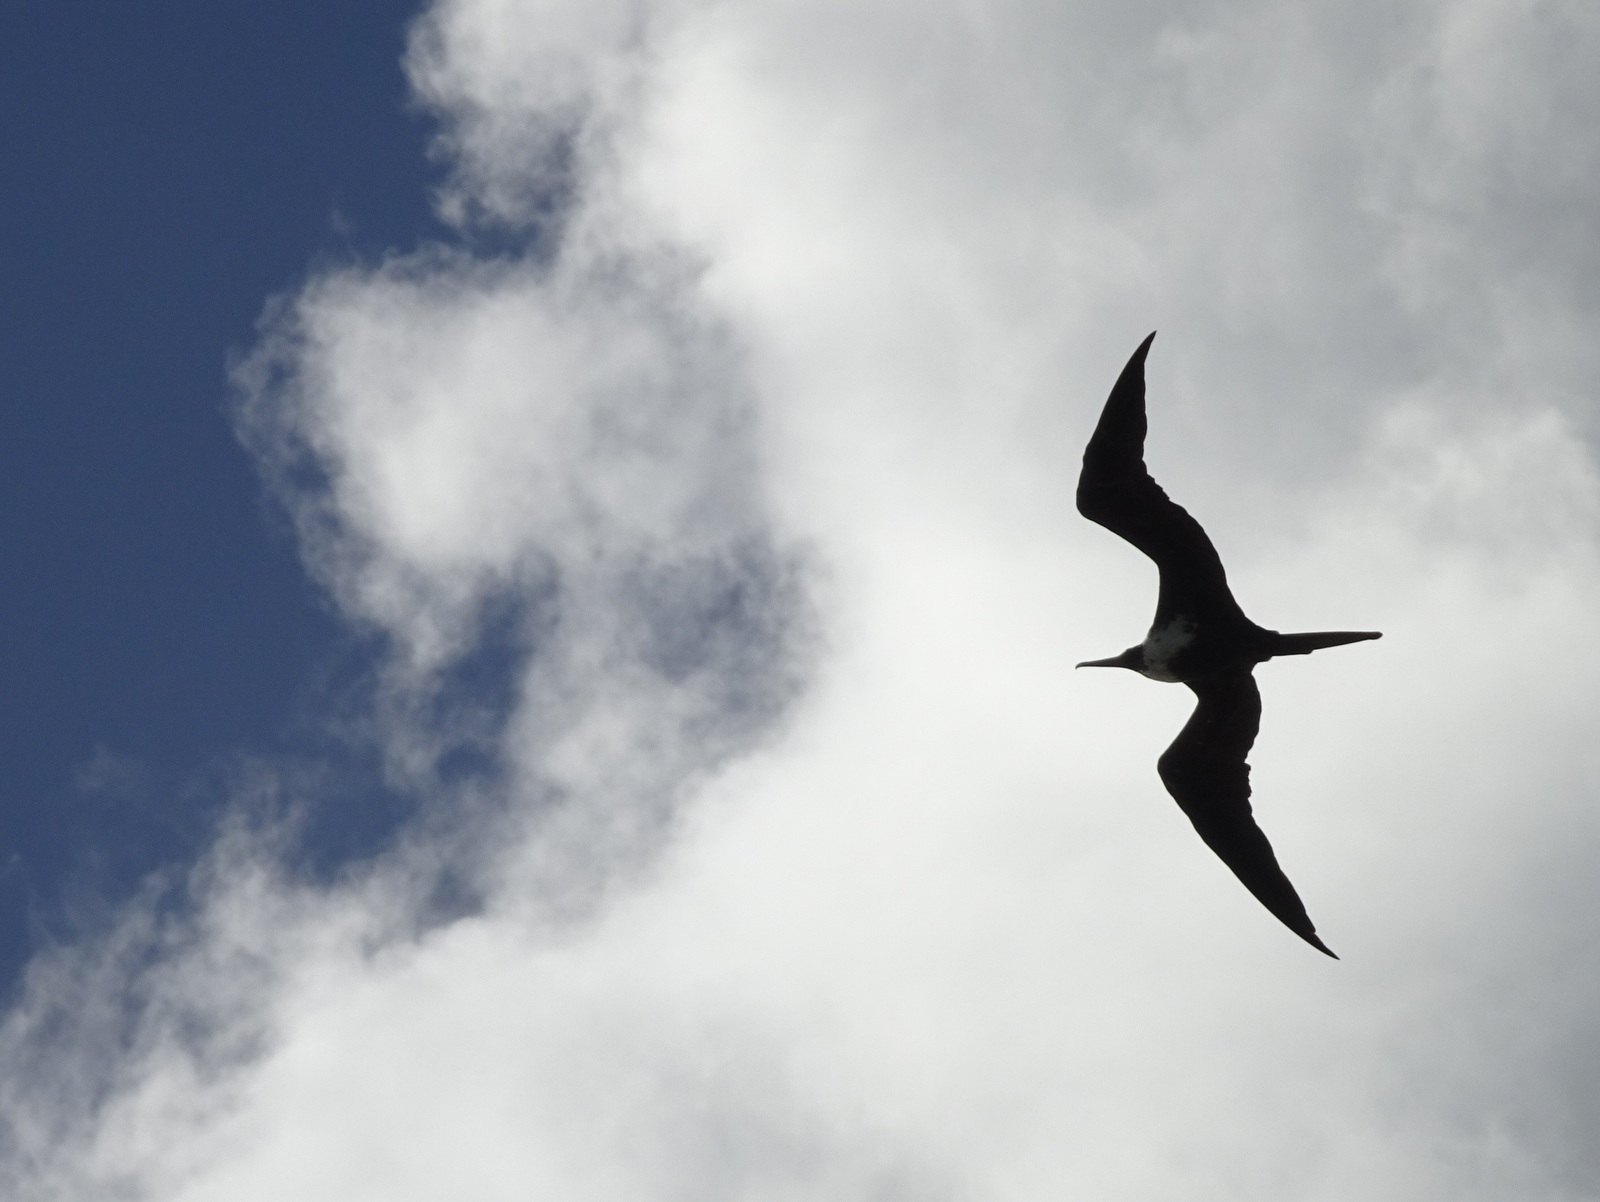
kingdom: Animalia
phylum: Chordata
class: Aves
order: Suliformes
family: Fregatidae
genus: Fregata
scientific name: Fregata magnificens
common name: Magnificent frigatebird
